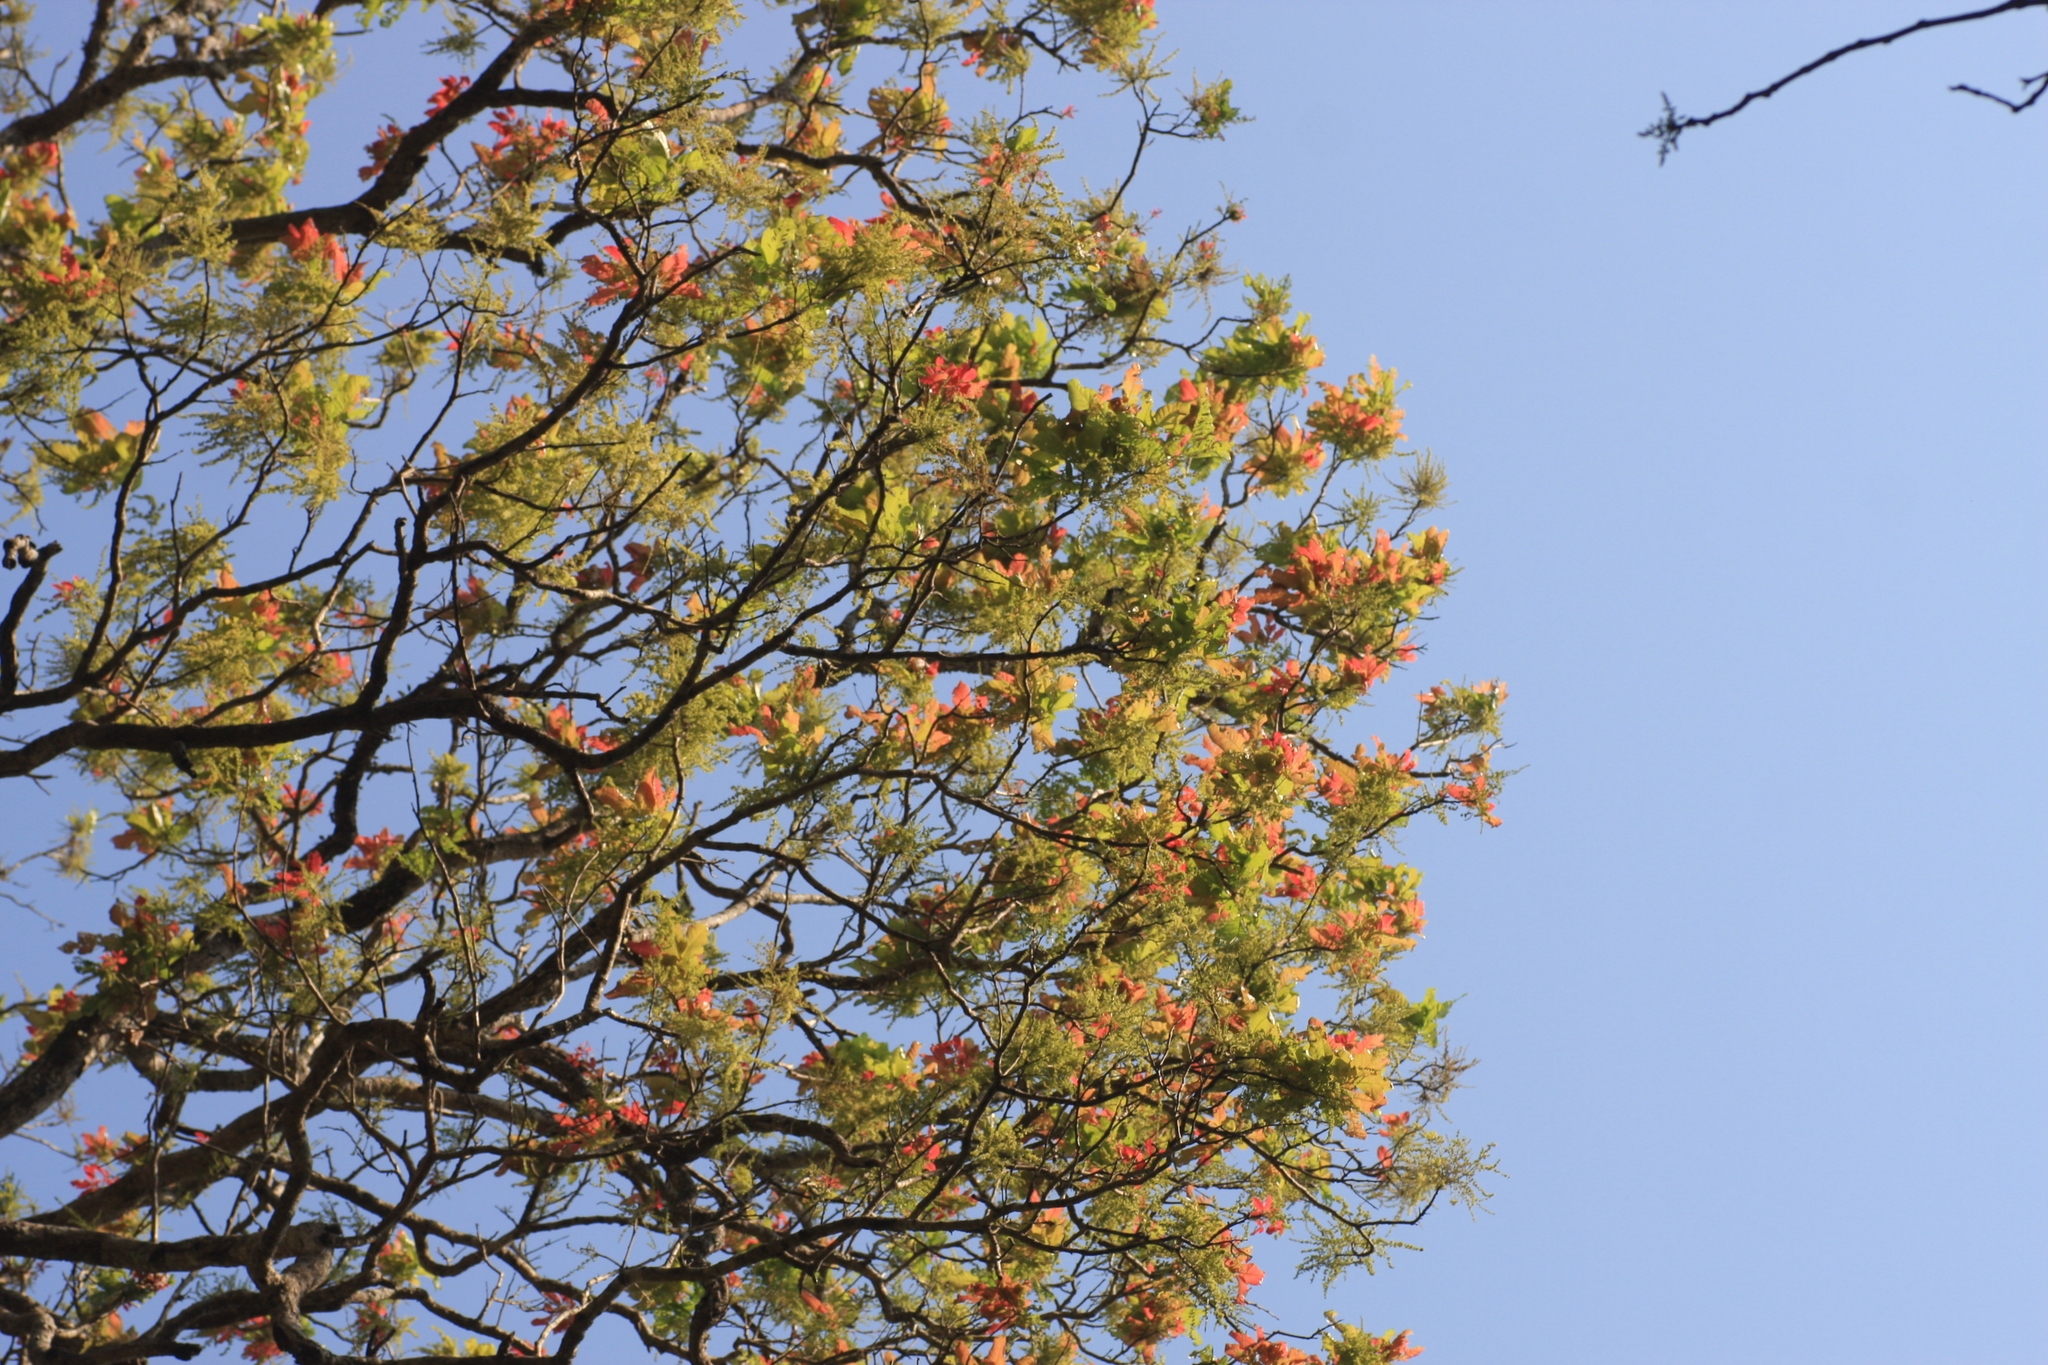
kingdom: Plantae
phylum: Tracheophyta
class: Magnoliopsida
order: Sapindales
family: Sapindaceae
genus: Schleichera
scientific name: Schleichera oleosa
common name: Malay lactree
